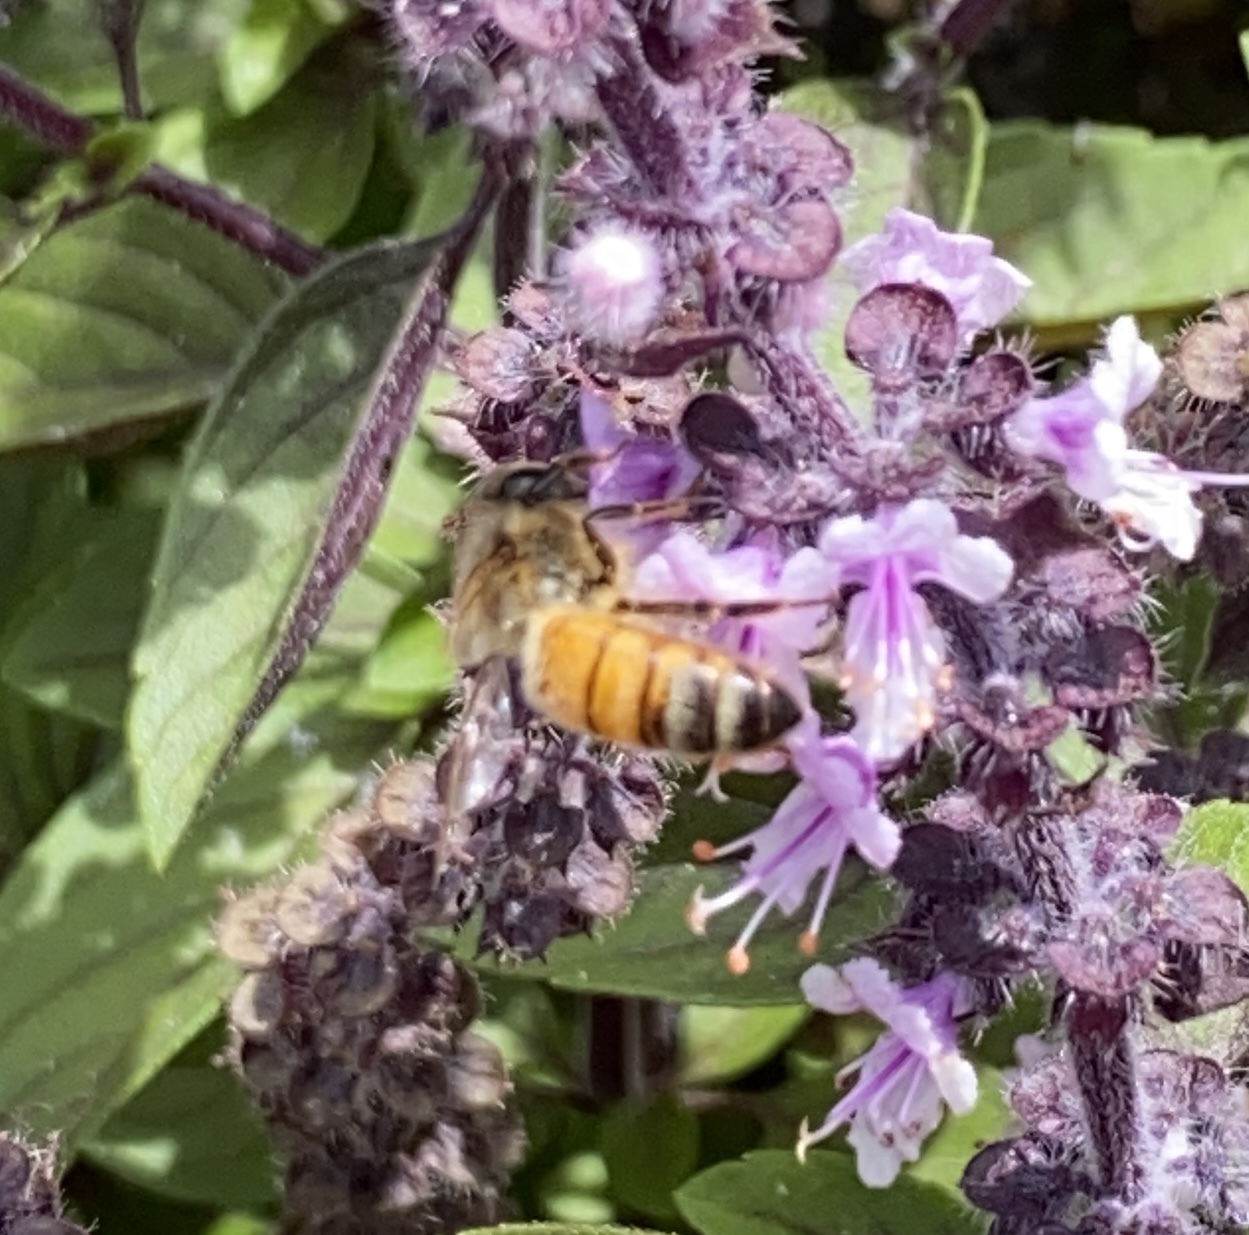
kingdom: Animalia
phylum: Arthropoda
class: Insecta
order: Hymenoptera
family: Apidae
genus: Apis
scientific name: Apis mellifera
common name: Honey bee
